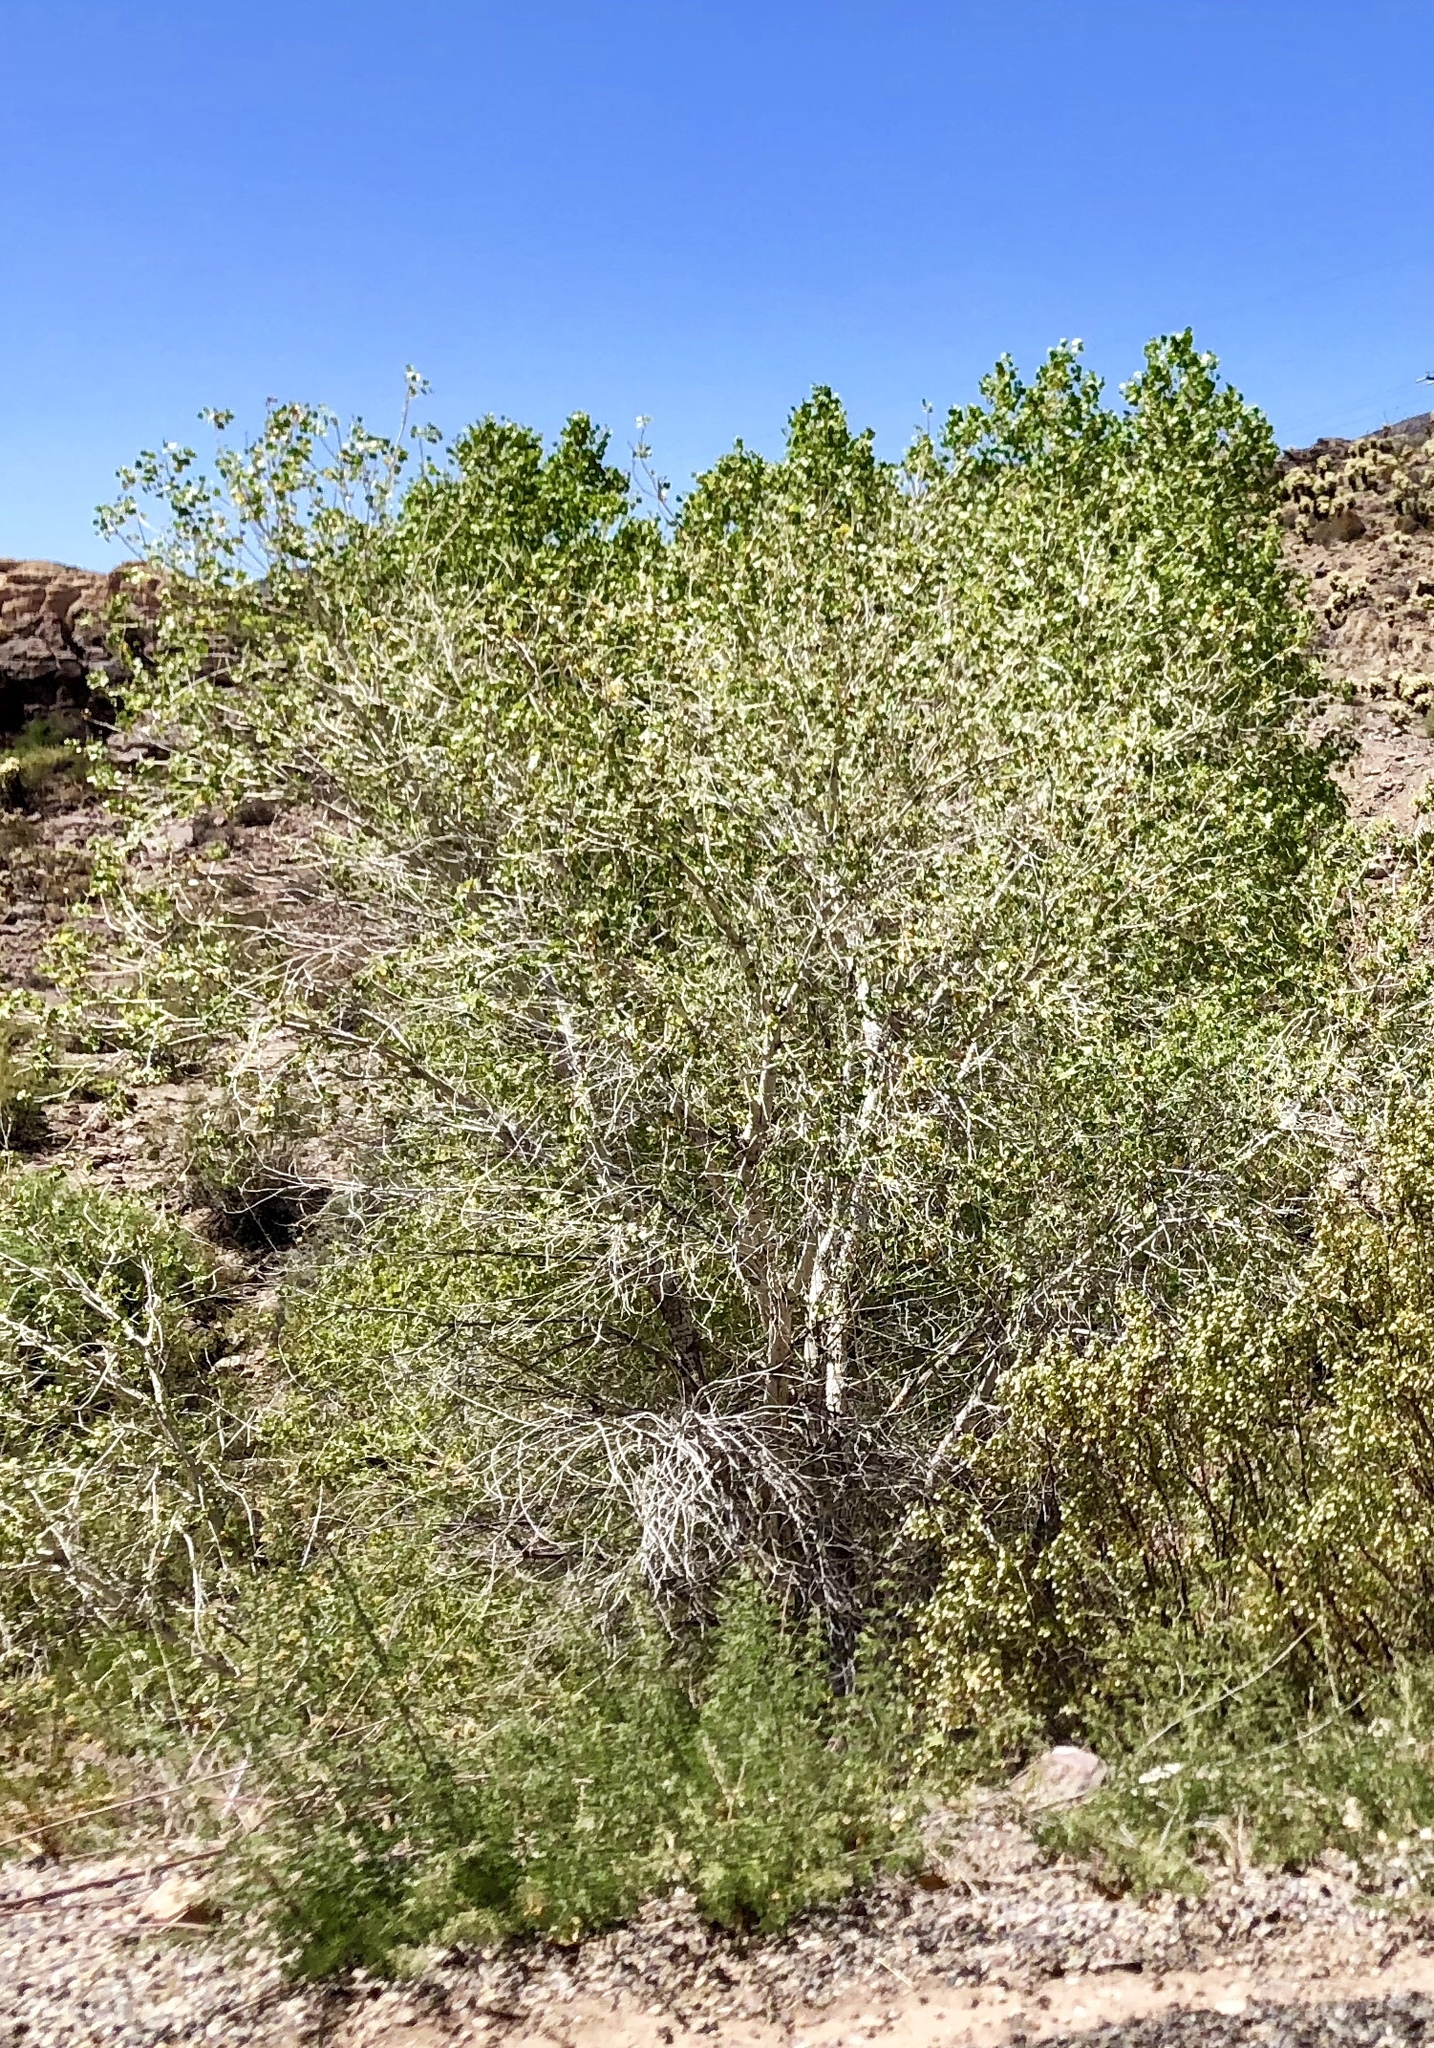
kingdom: Plantae
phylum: Tracheophyta
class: Magnoliopsida
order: Malpighiales
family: Salicaceae
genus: Populus
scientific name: Populus fremontii
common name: Fremont's cottonwood
